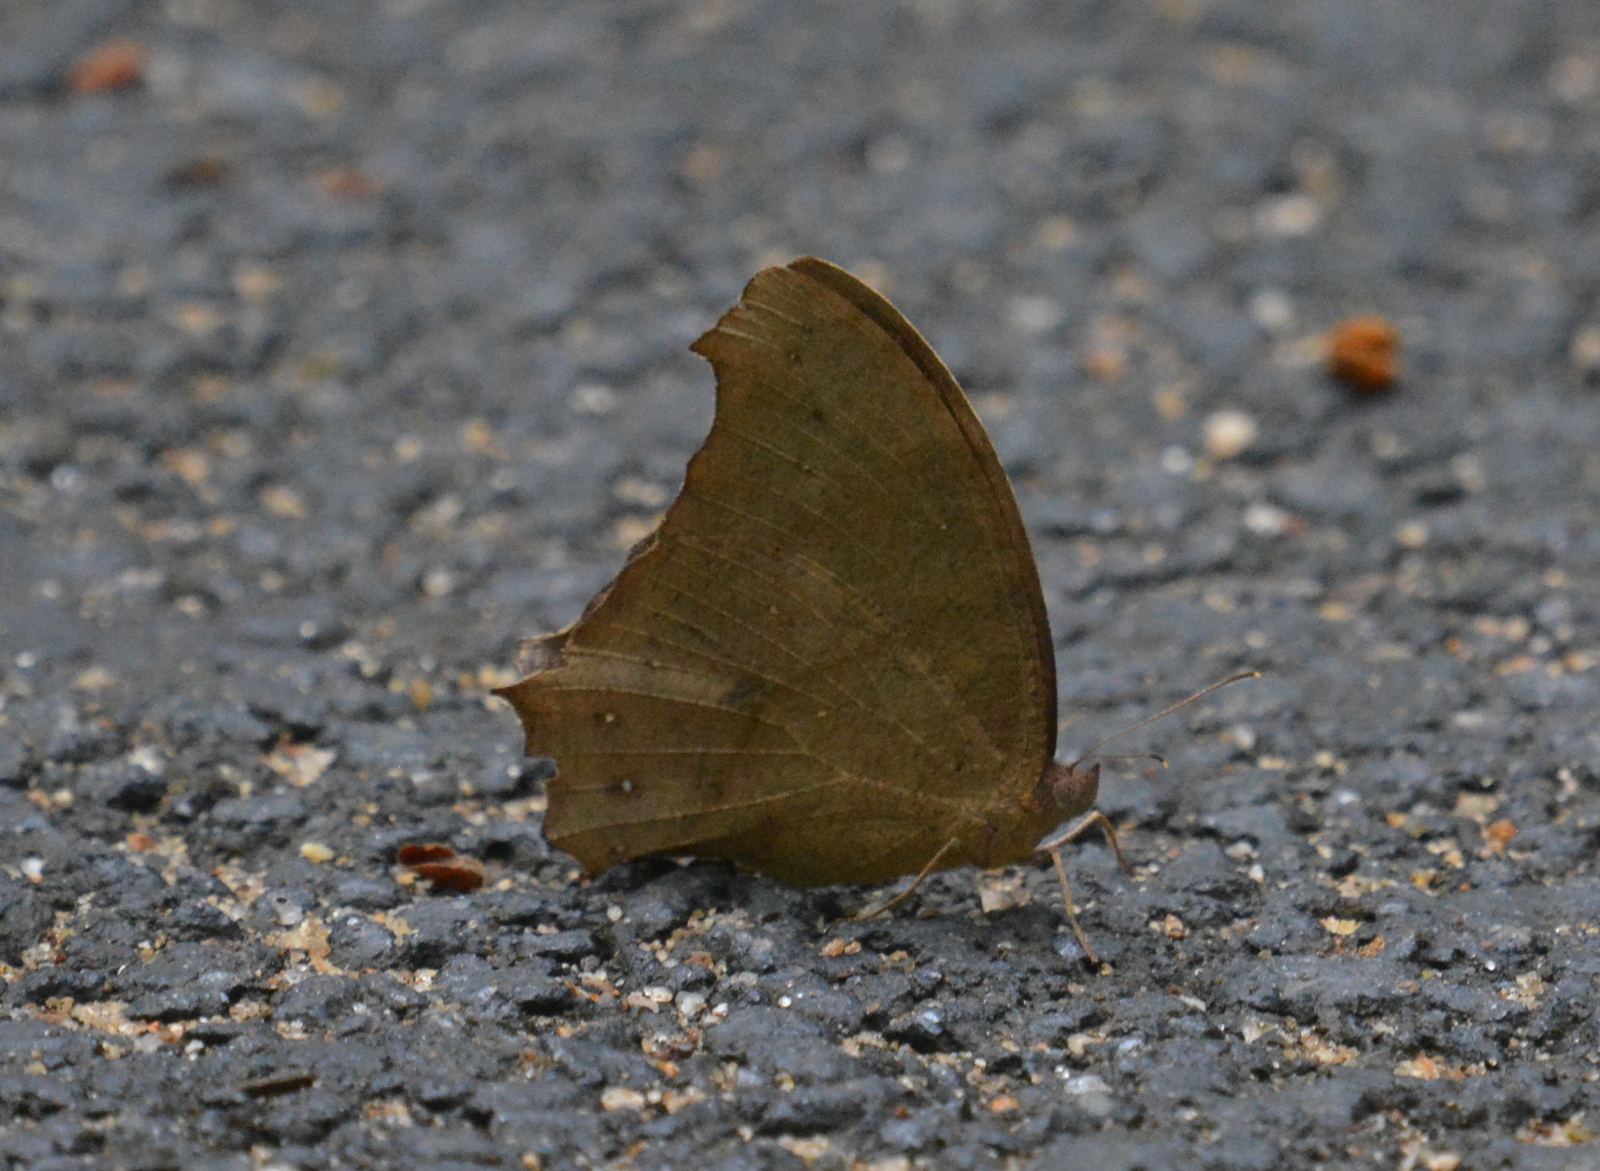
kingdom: Animalia
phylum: Arthropoda
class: Insecta
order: Lepidoptera
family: Nymphalidae
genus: Melanitis
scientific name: Melanitis leda
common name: Twilight brown
